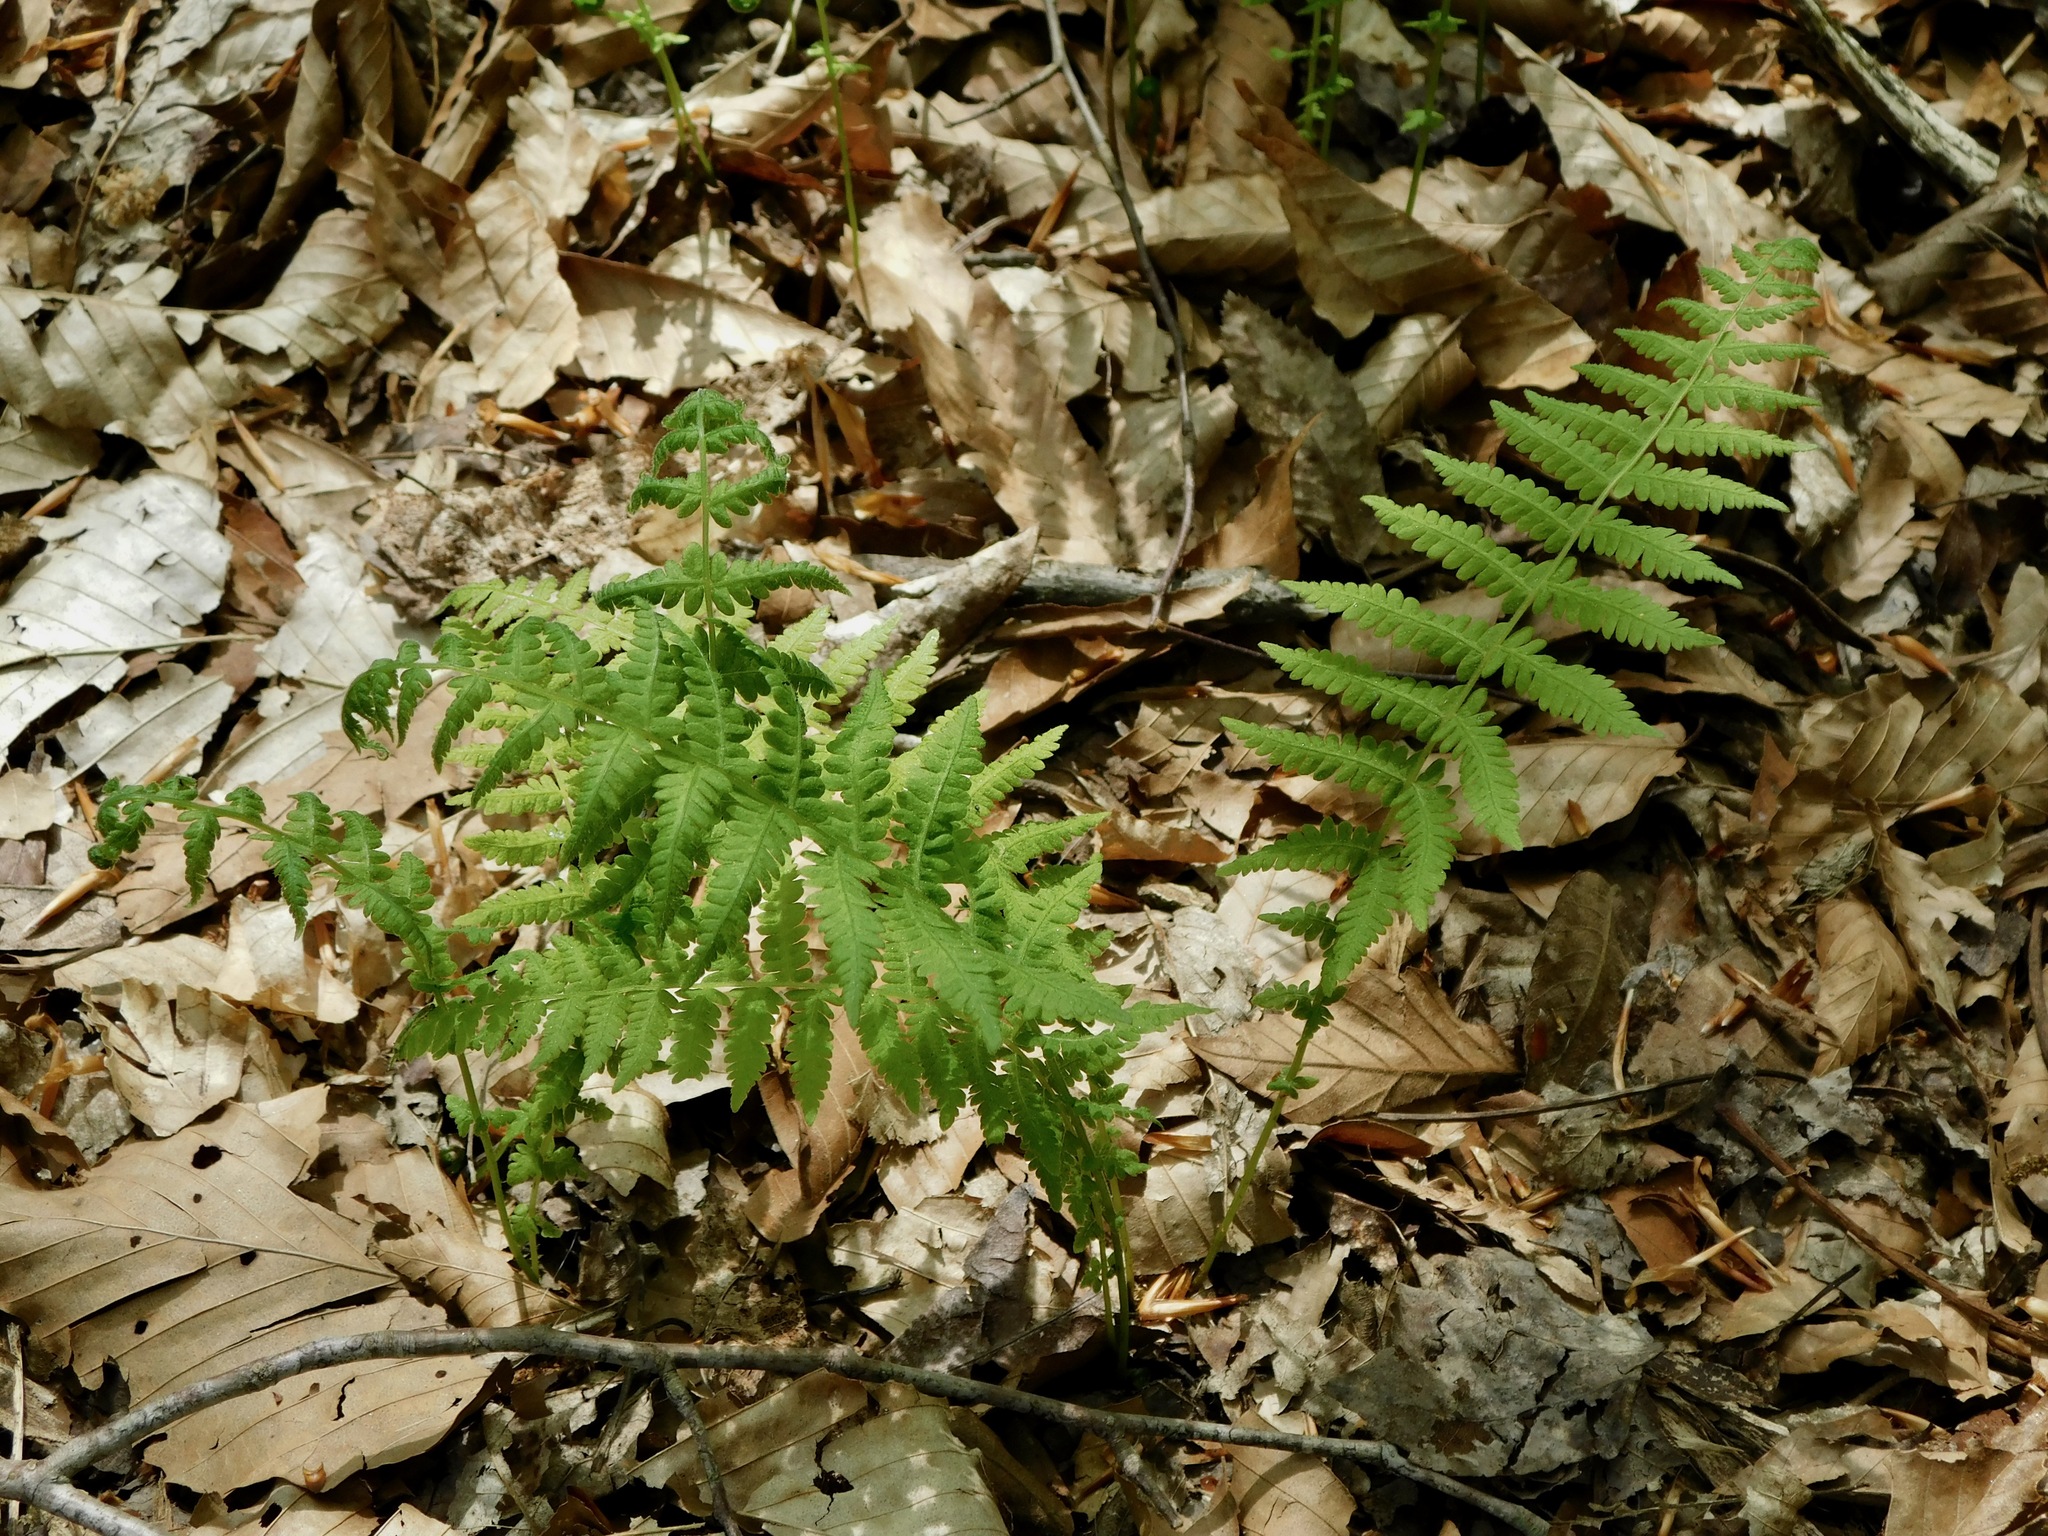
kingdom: Plantae
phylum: Tracheophyta
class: Polypodiopsida
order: Polypodiales
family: Thelypteridaceae
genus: Amauropelta
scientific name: Amauropelta noveboracensis
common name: New york fern
